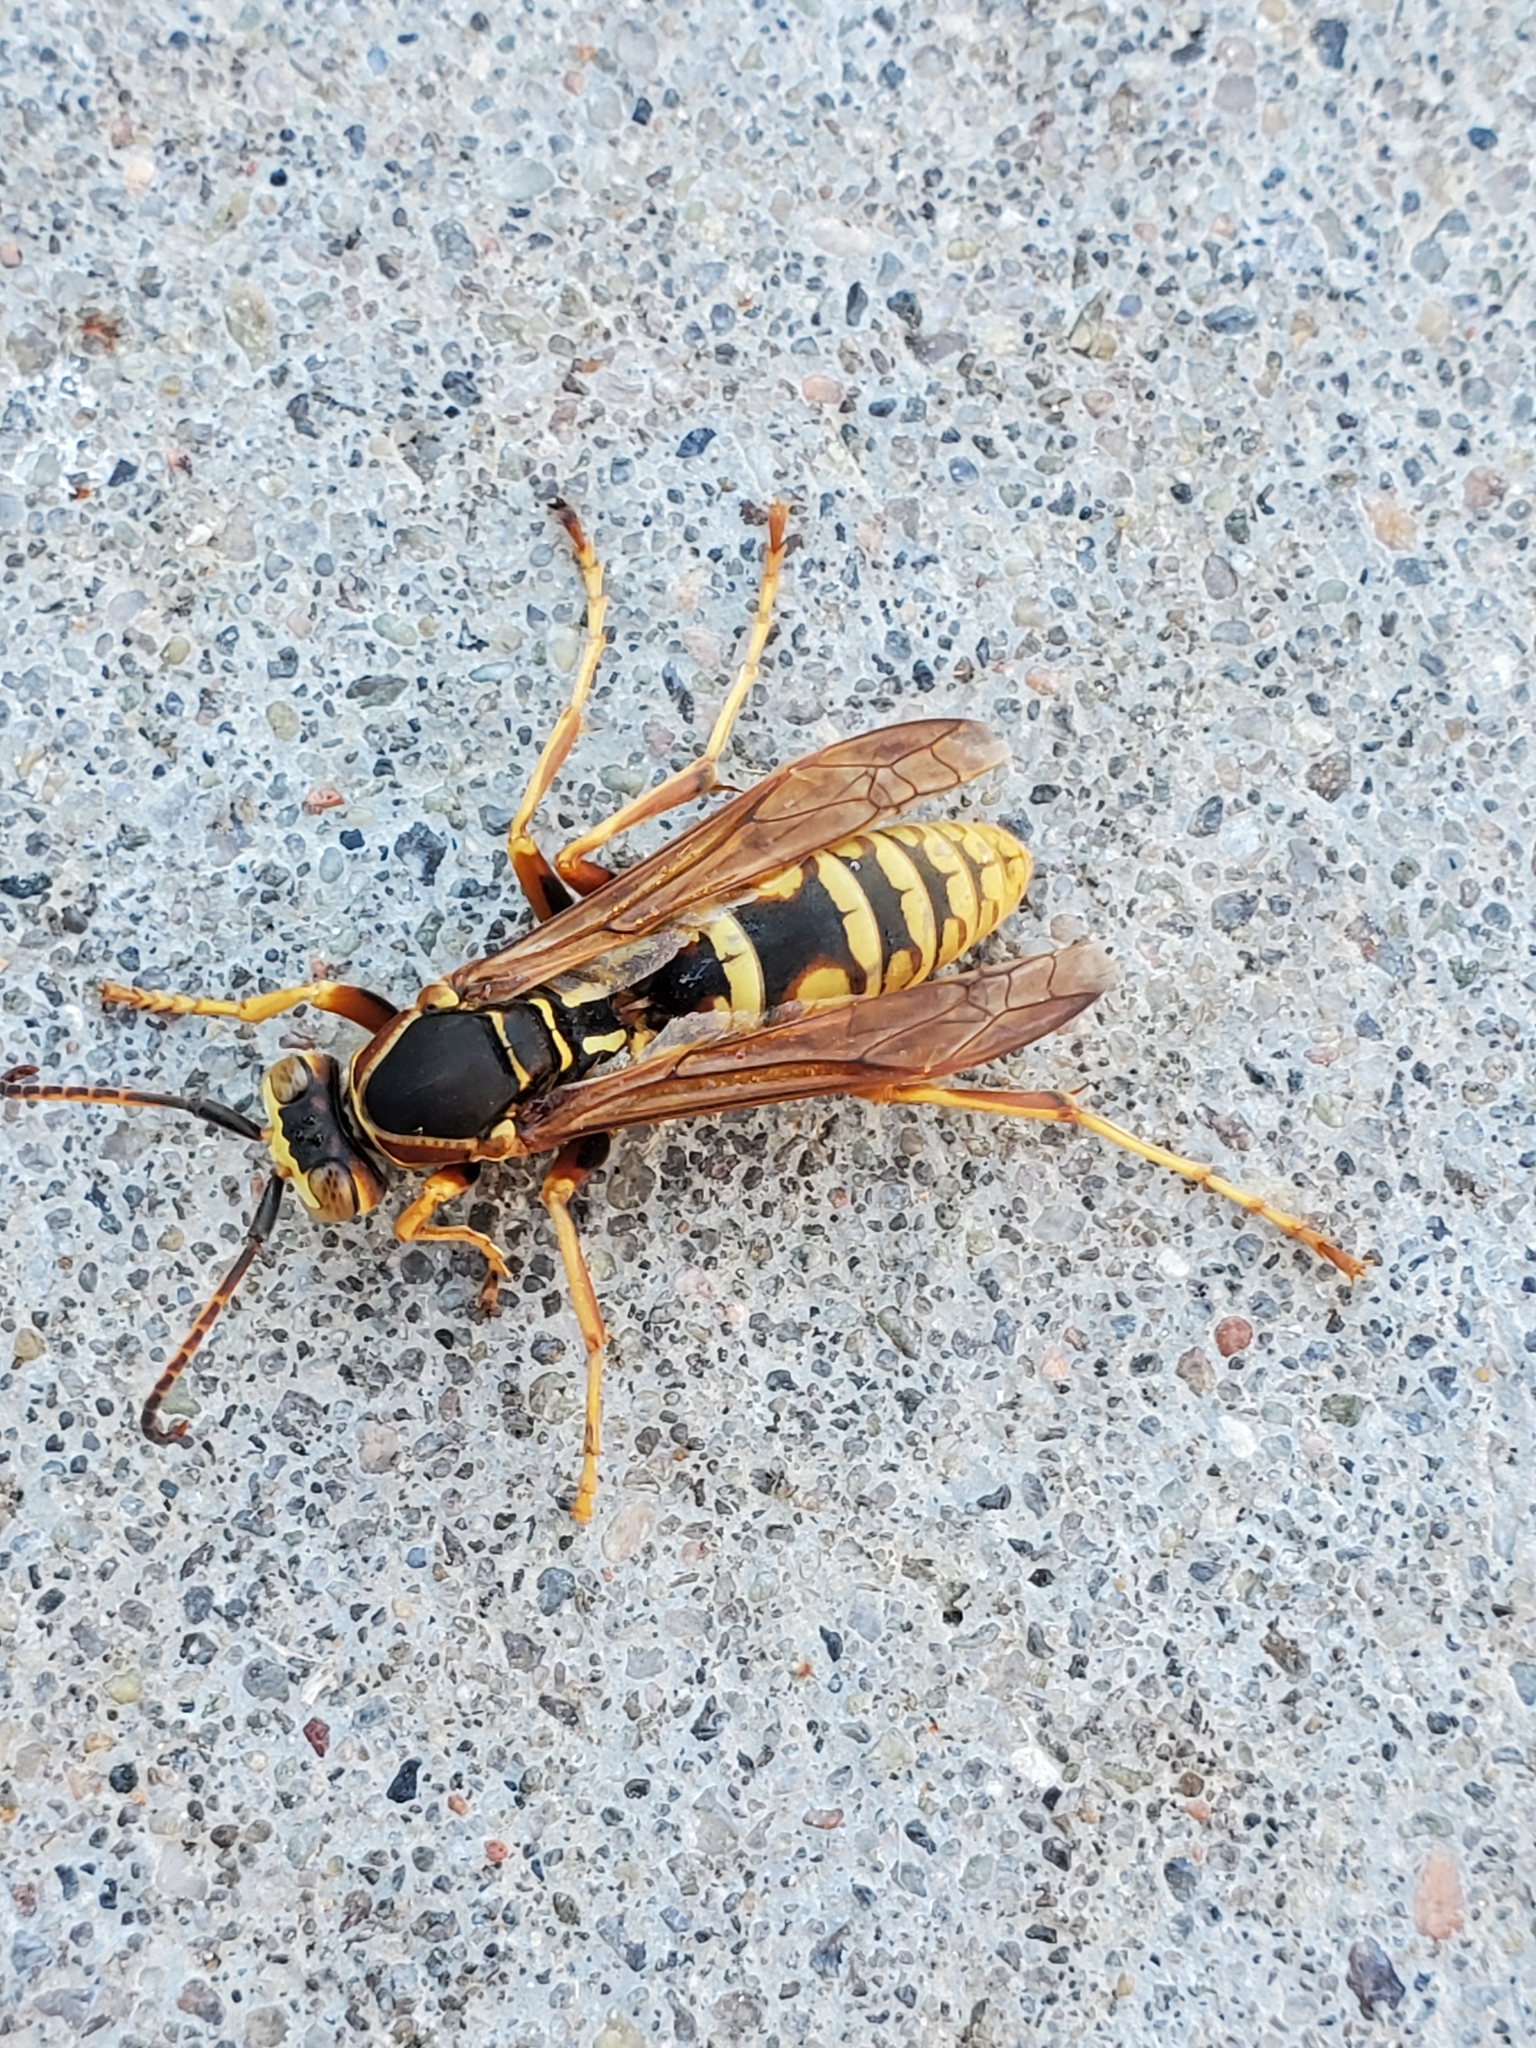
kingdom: Animalia
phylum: Arthropoda
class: Insecta
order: Hymenoptera
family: Eumenidae
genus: Polistes
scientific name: Polistes aurifer
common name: Paper wasp
